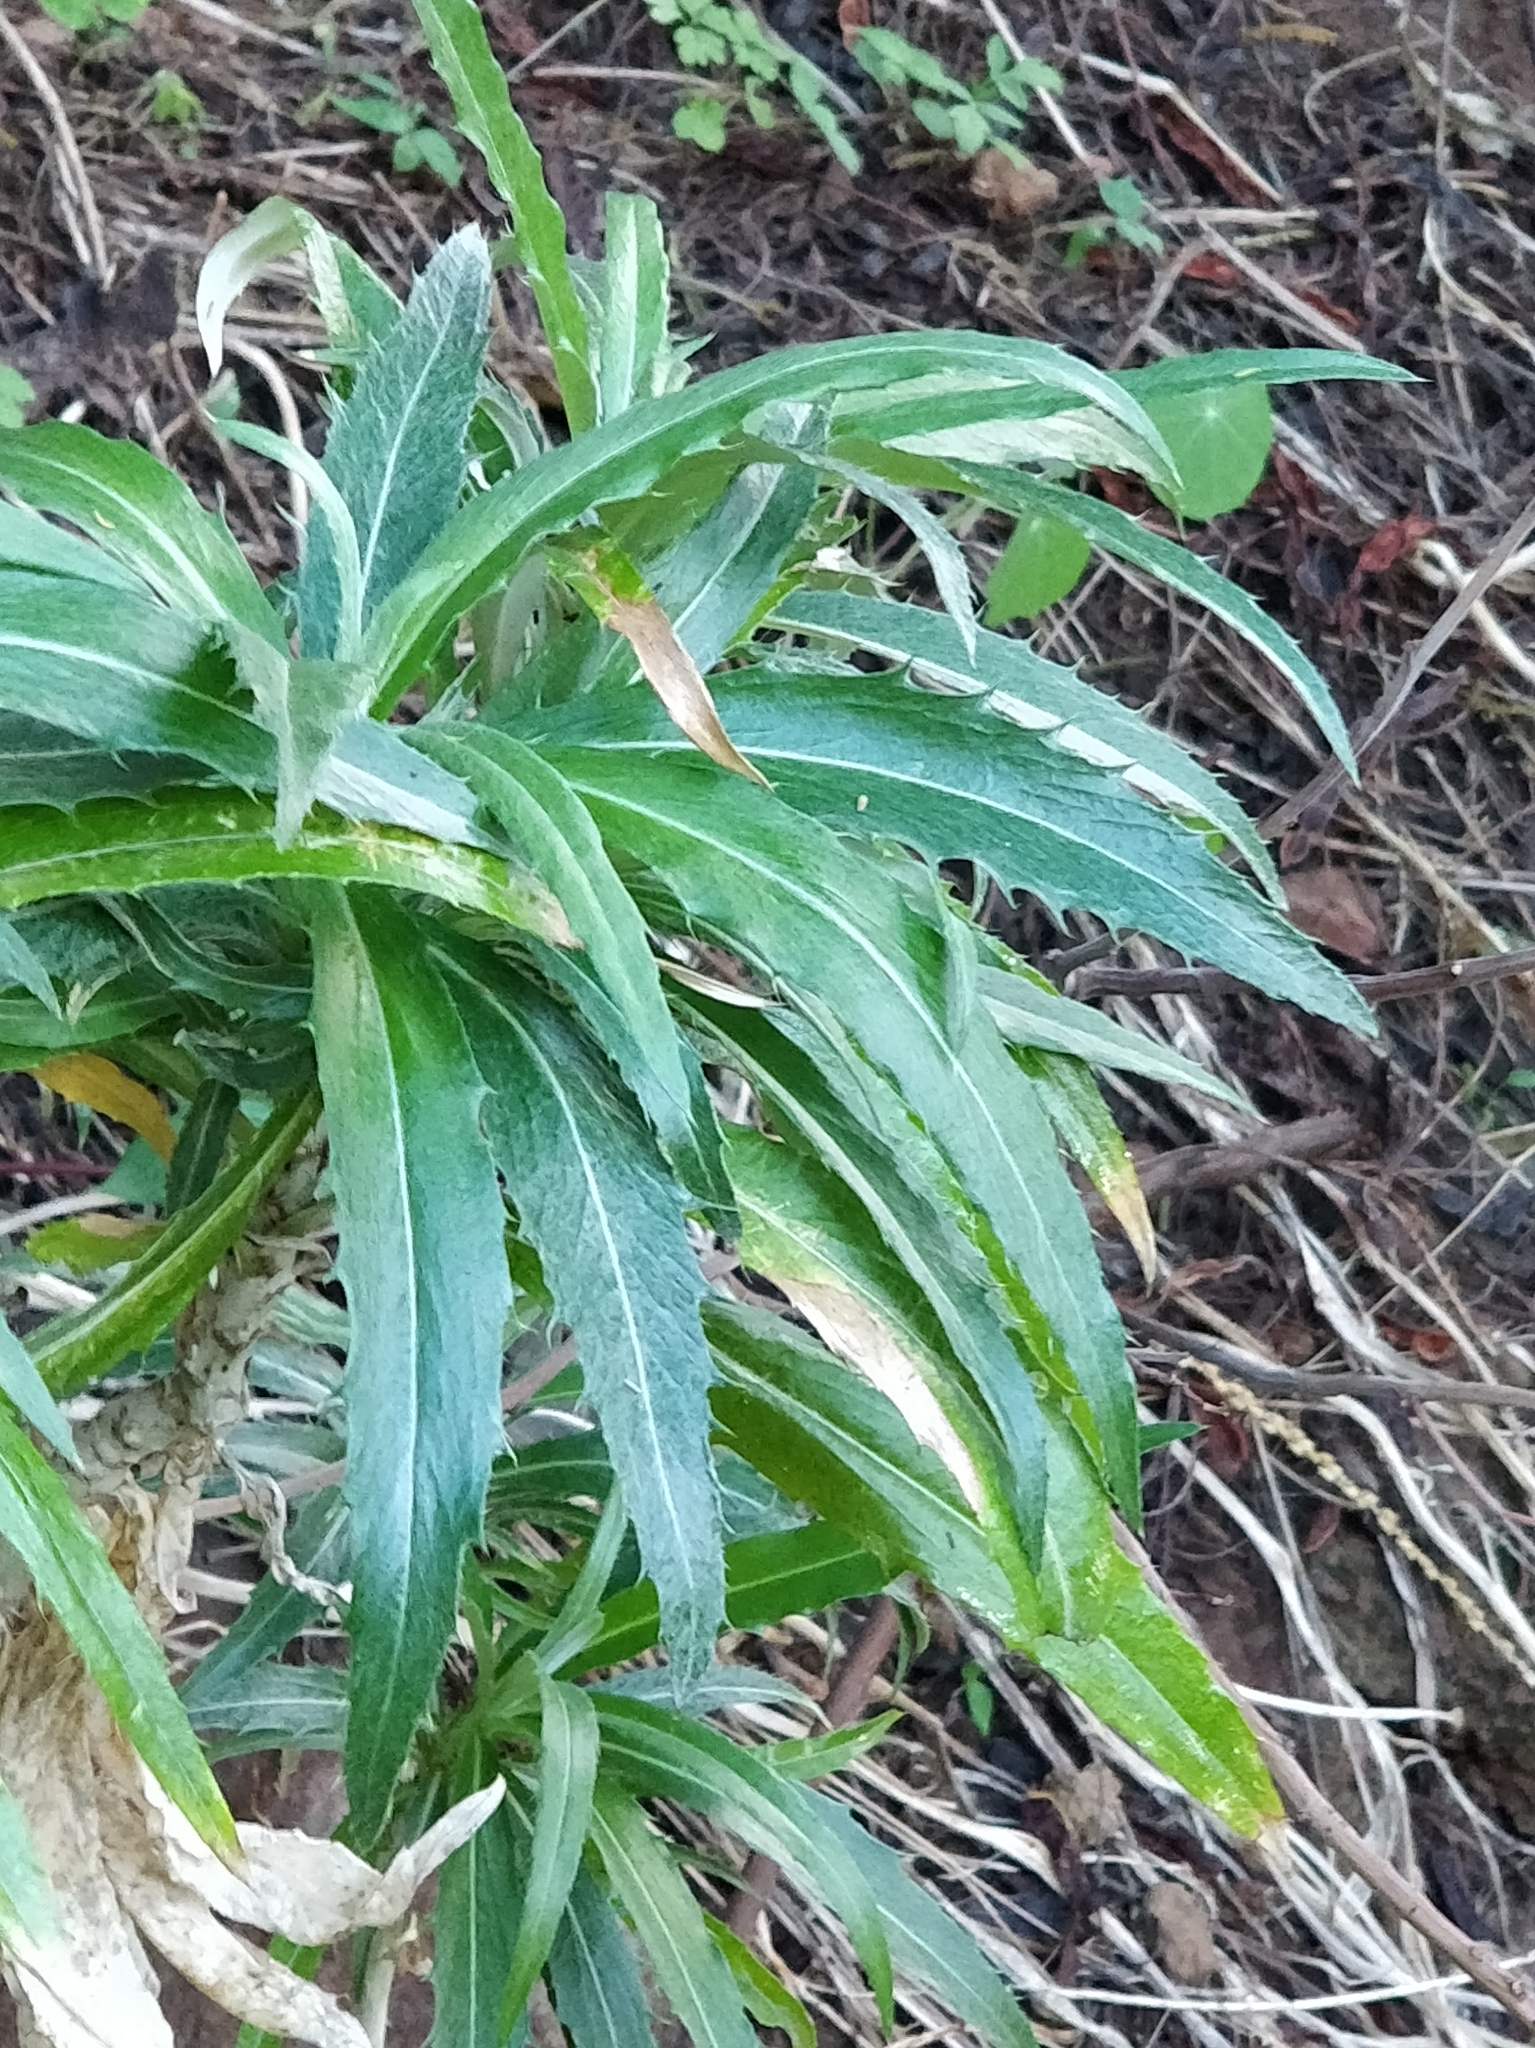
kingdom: Plantae
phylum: Tracheophyta
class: Magnoliopsida
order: Asterales
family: Asteraceae
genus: Carlina
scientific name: Carlina salicifolia
